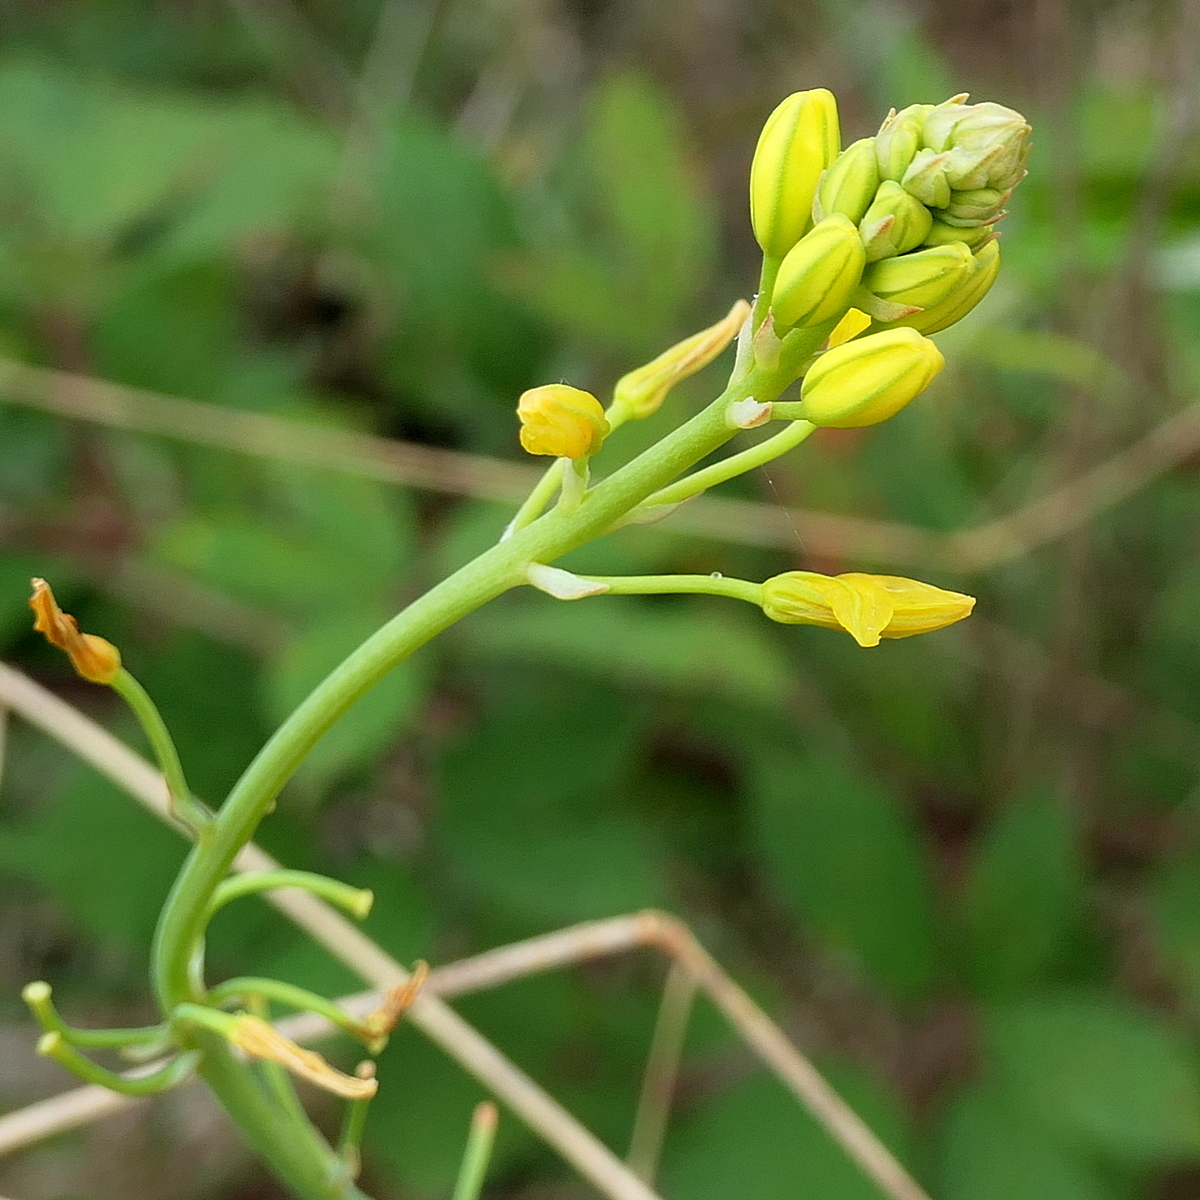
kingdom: Plantae
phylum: Tracheophyta
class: Liliopsida
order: Asparagales
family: Asphodelaceae
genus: Bulbine
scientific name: Bulbine glauca
